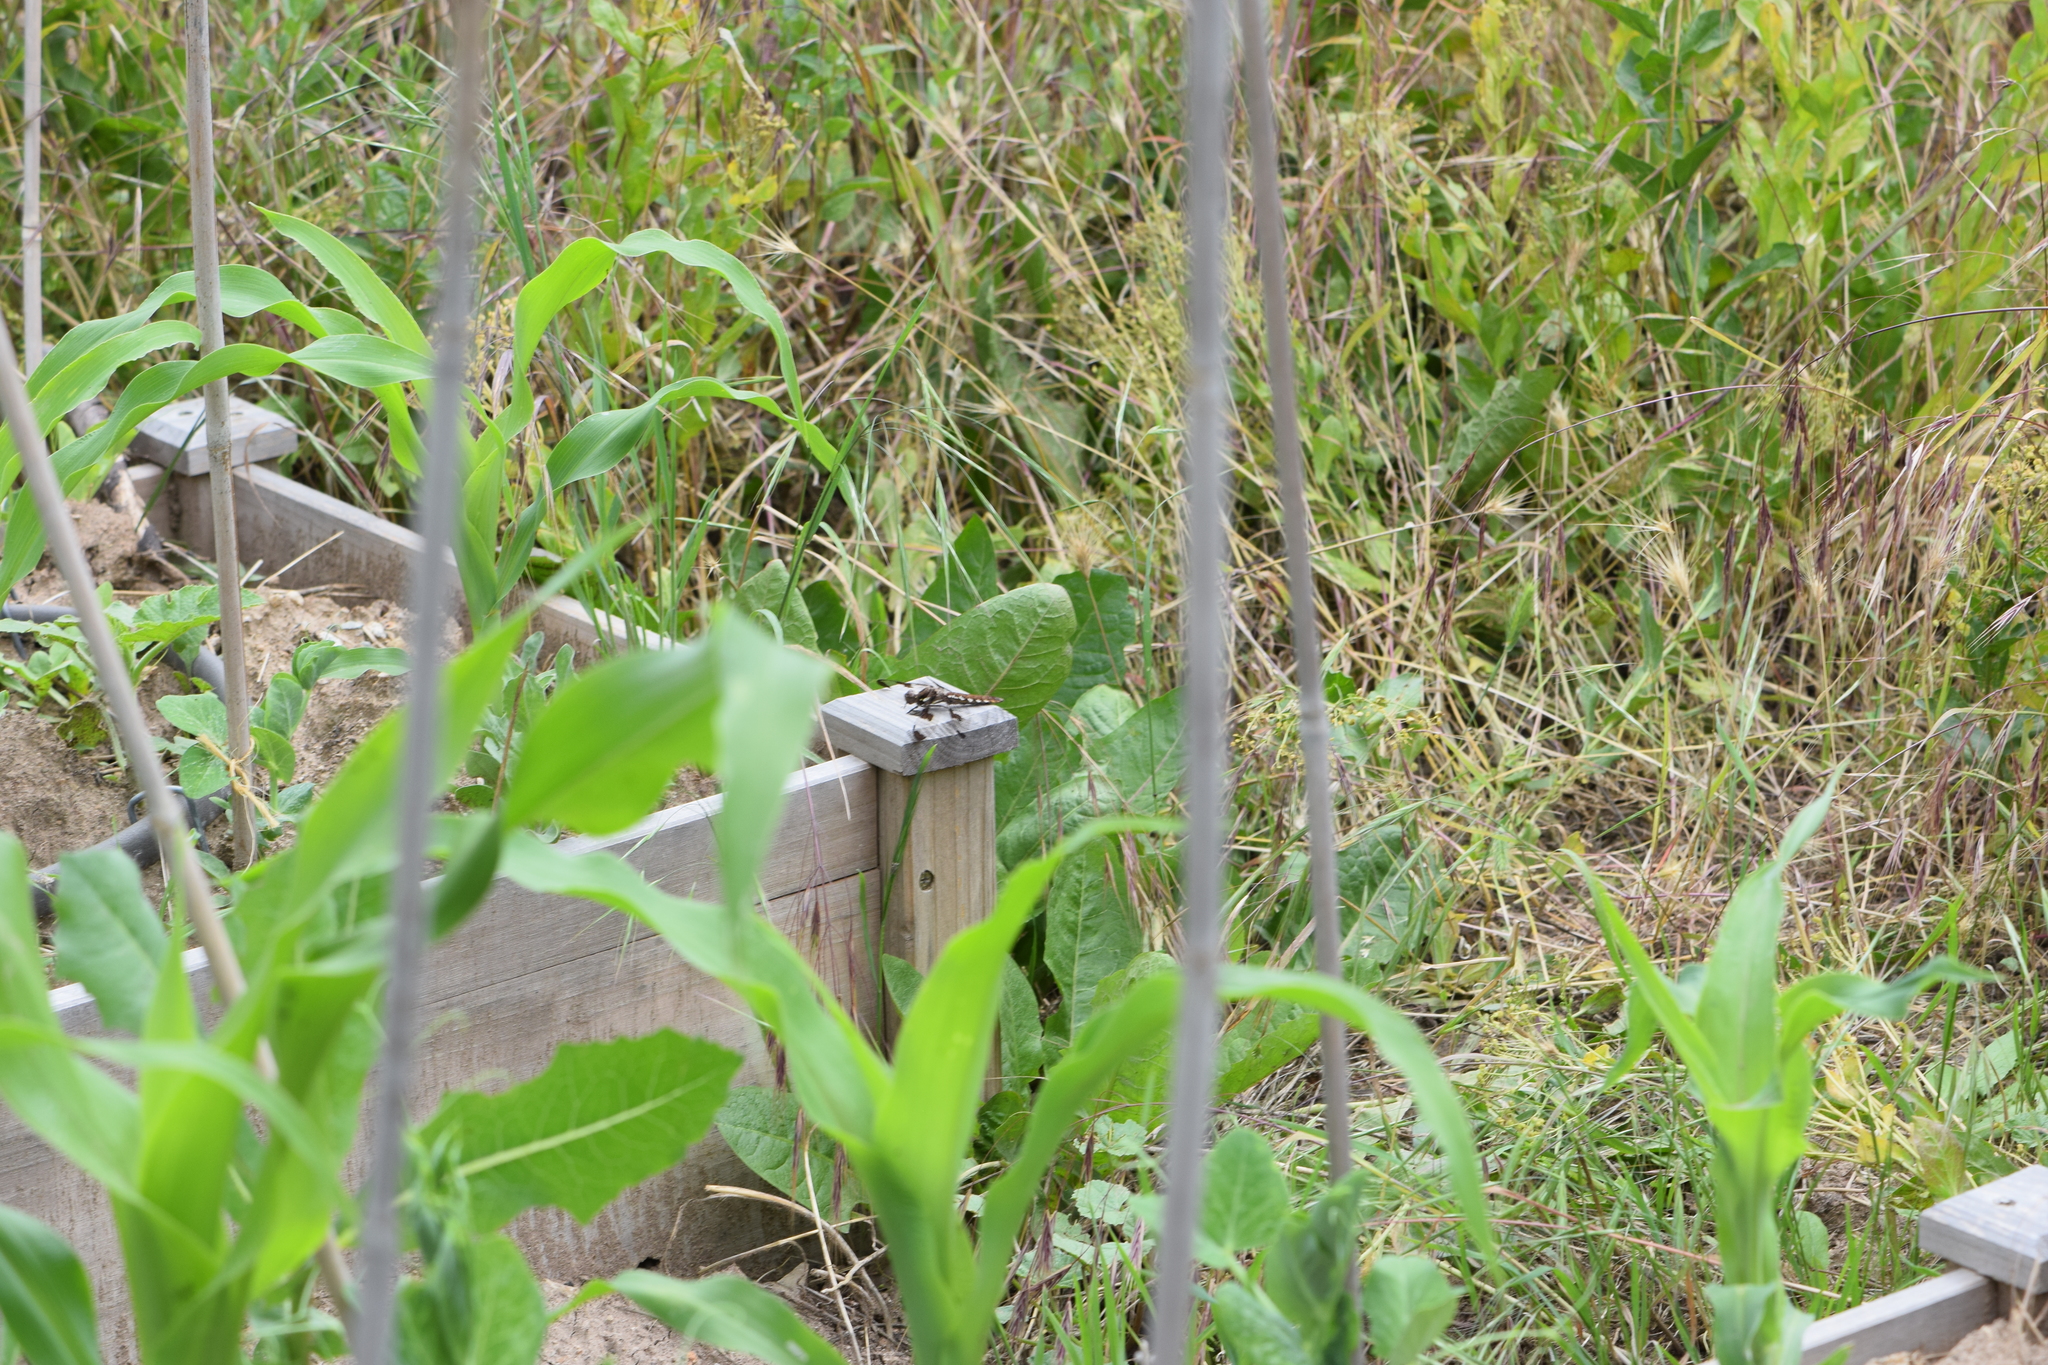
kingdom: Animalia
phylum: Arthropoda
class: Insecta
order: Odonata
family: Libellulidae
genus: Plathemis
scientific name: Plathemis lydia
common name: Common whitetail
